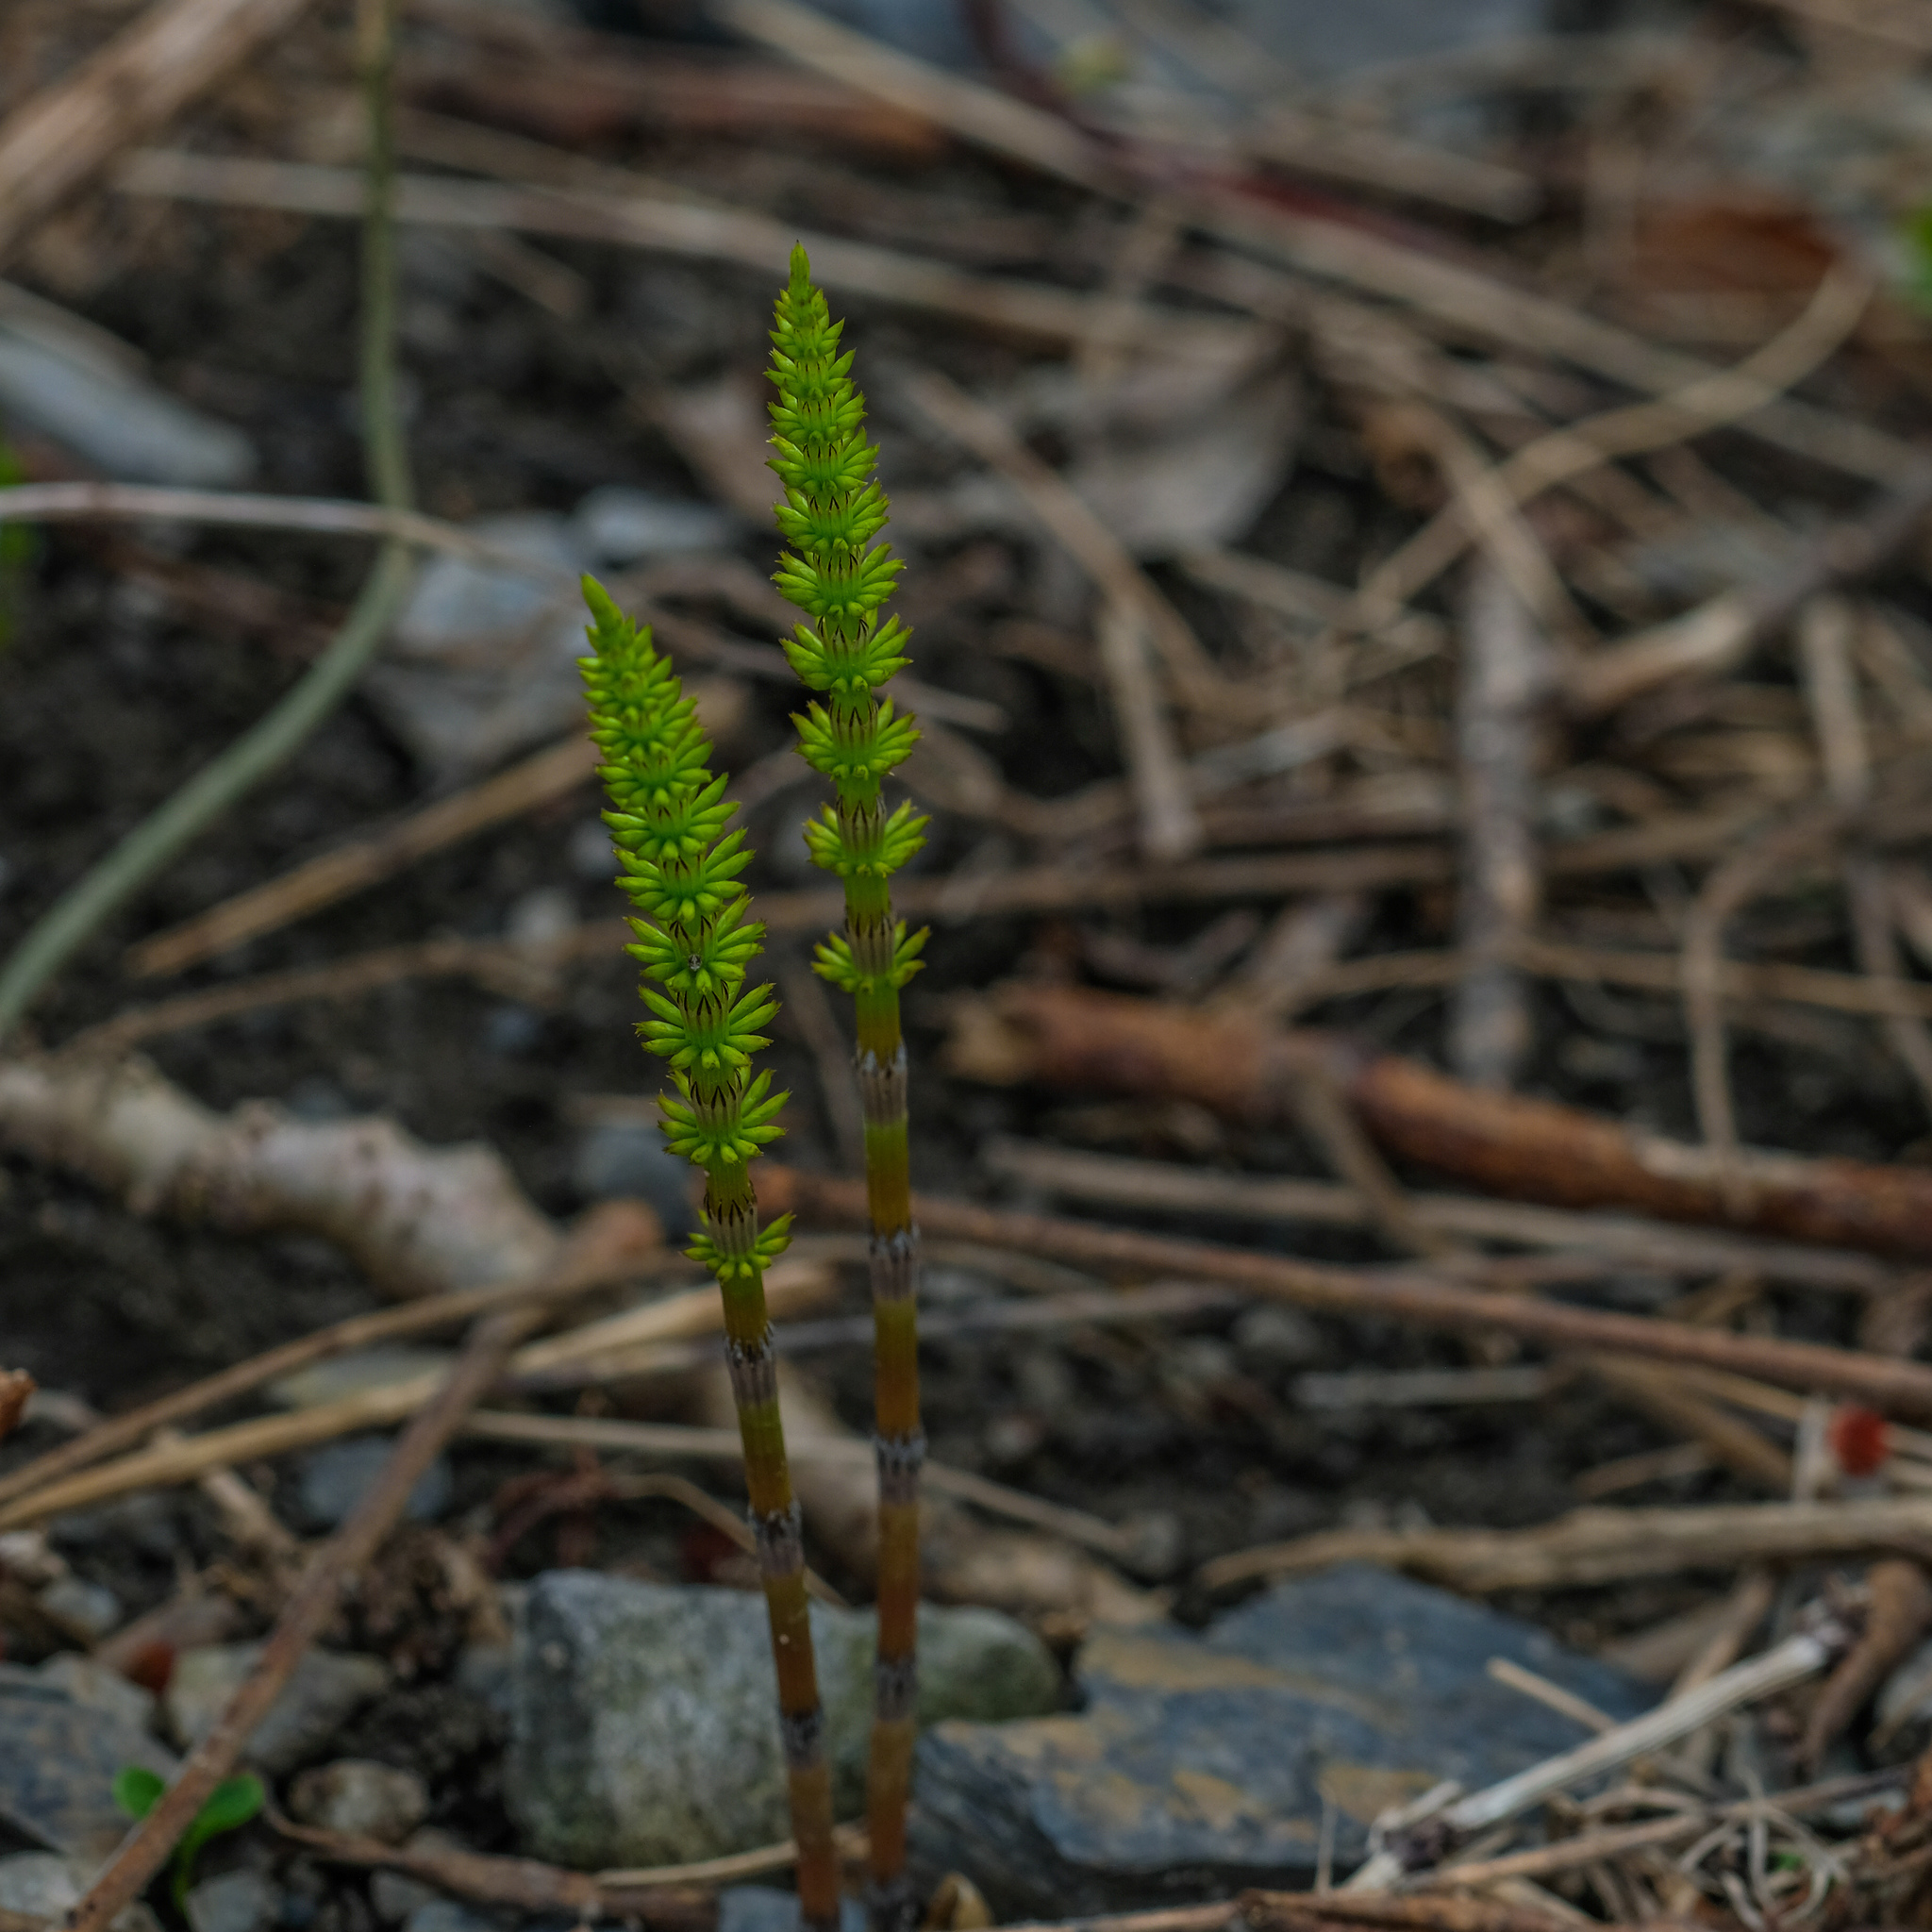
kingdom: Plantae
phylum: Tracheophyta
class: Polypodiopsida
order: Equisetales
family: Equisetaceae
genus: Equisetum
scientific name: Equisetum arvense
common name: Field horsetail
